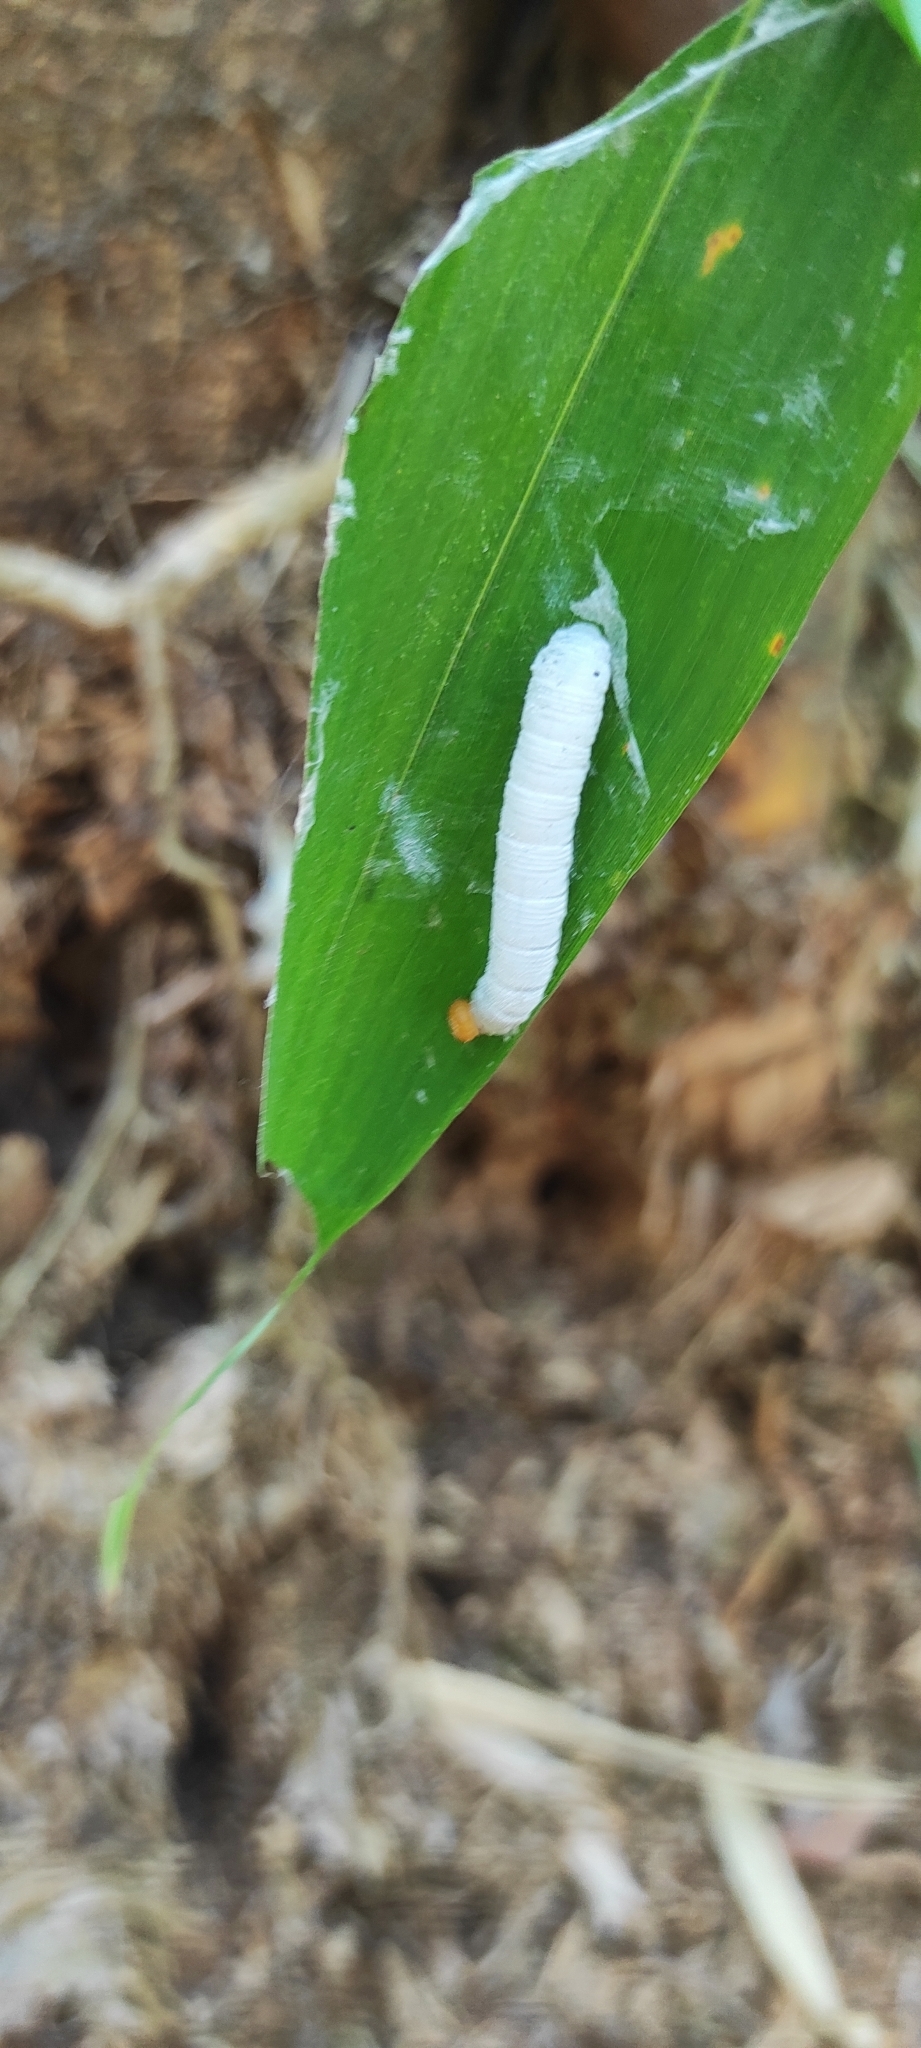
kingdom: Animalia
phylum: Arthropoda
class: Insecta
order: Lepidoptera
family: Hesperiidae
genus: Matapa
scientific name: Matapa aria
